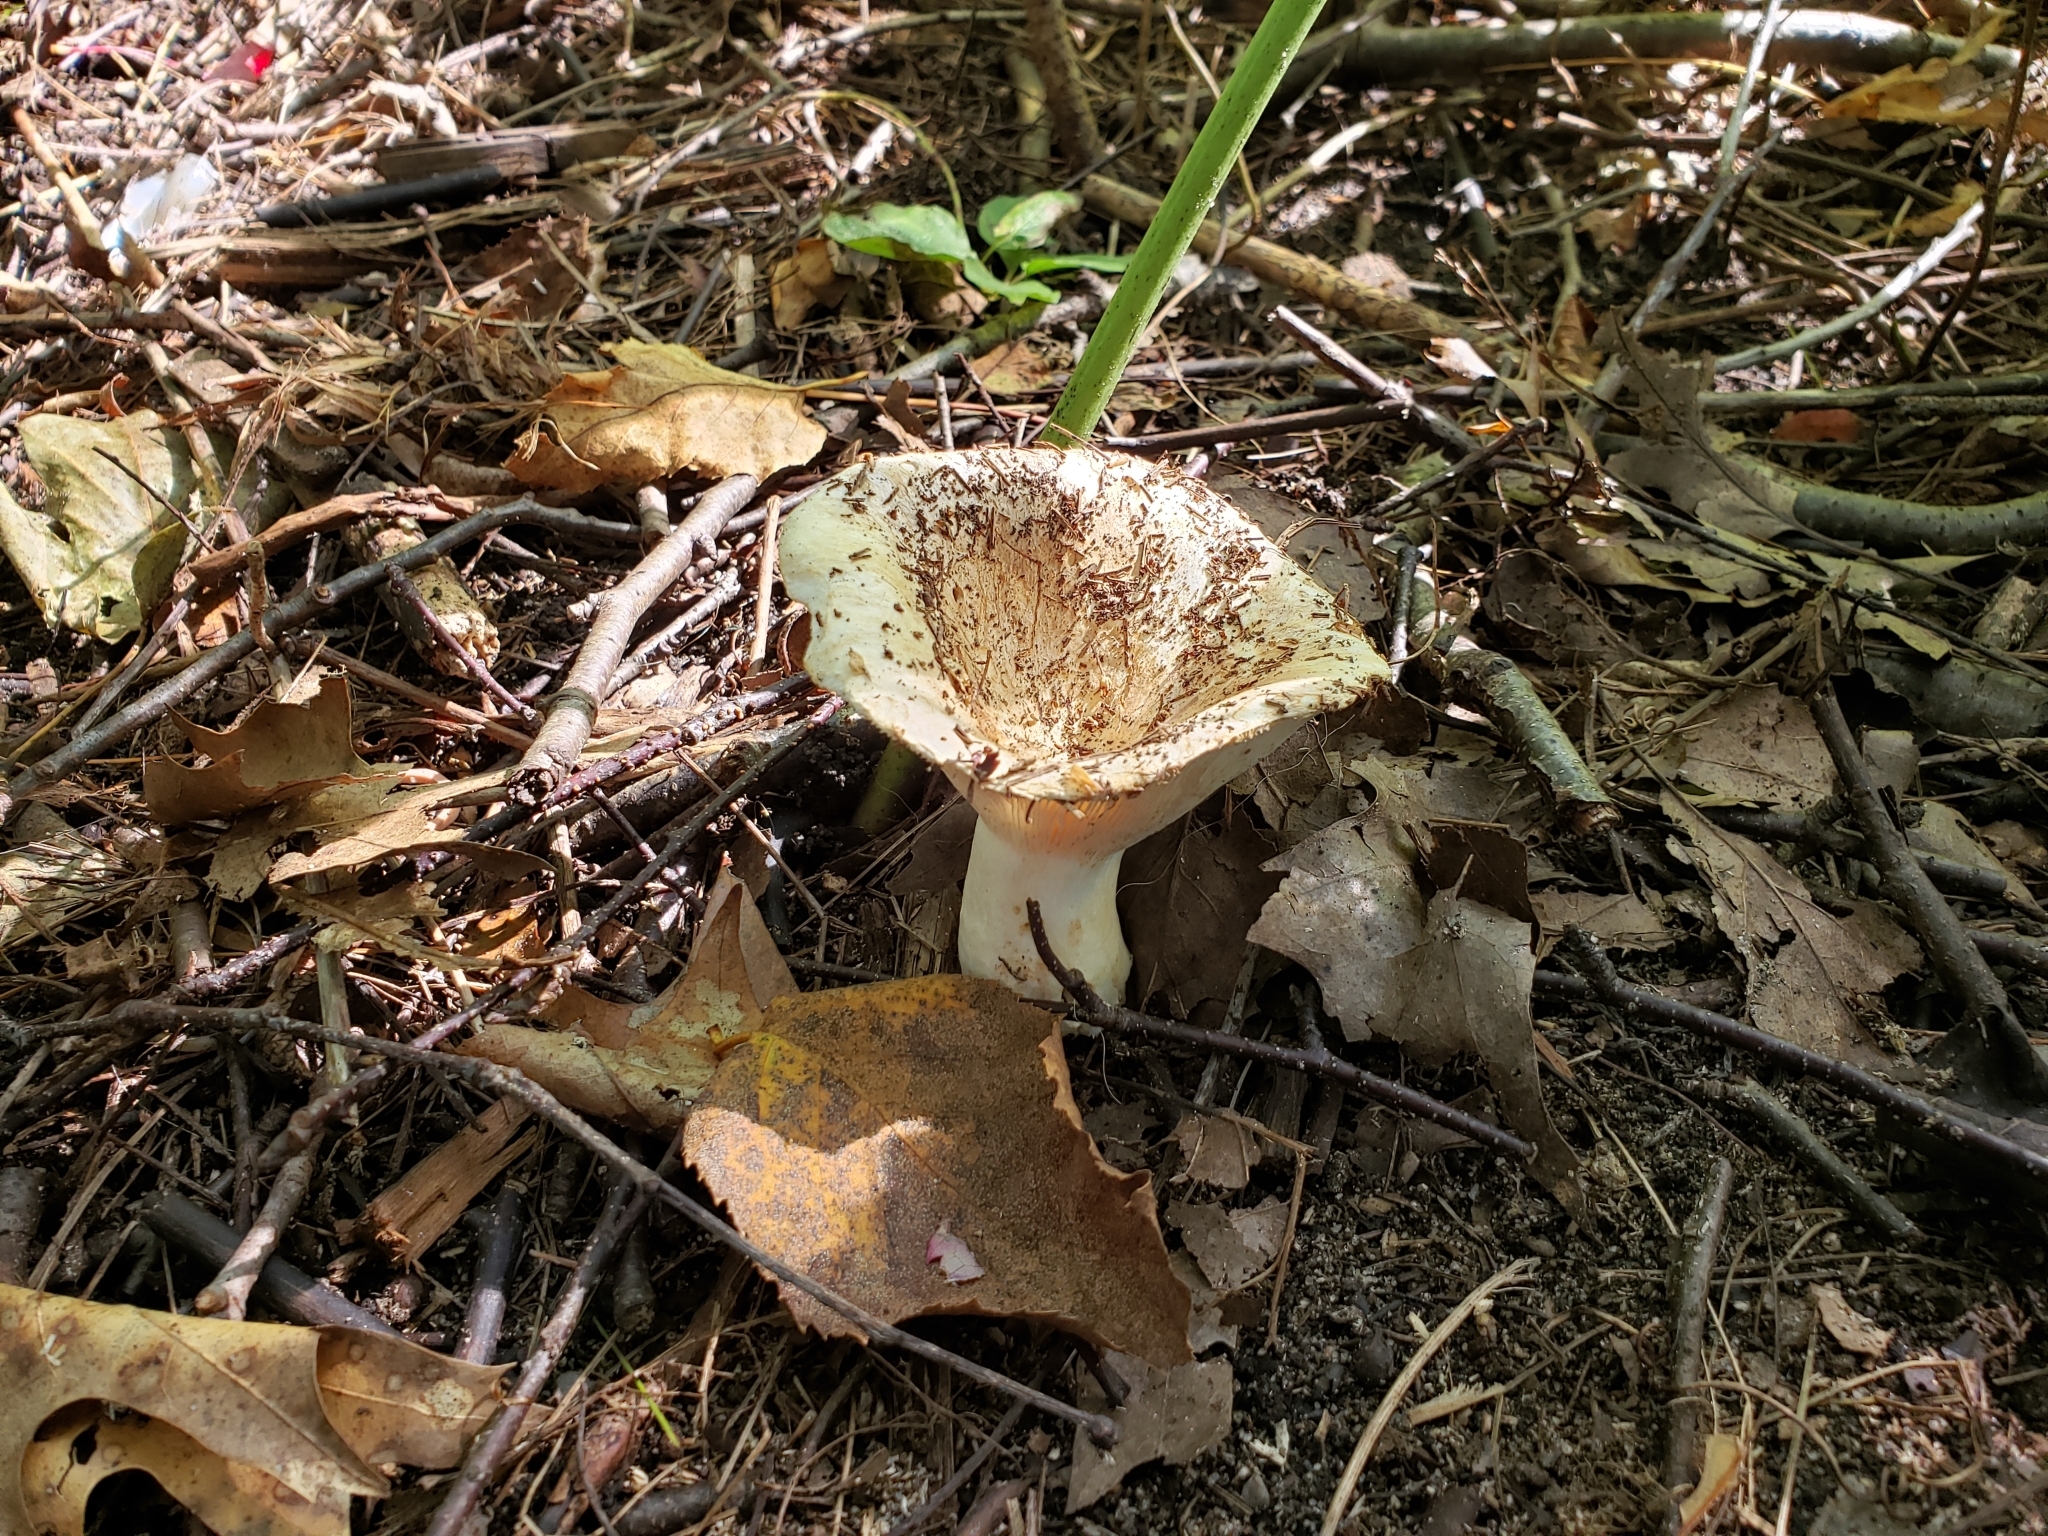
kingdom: Fungi
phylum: Basidiomycota
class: Agaricomycetes
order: Russulales
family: Russulaceae
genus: Russula
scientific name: Russula brevipes
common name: Short-stemmed russula
